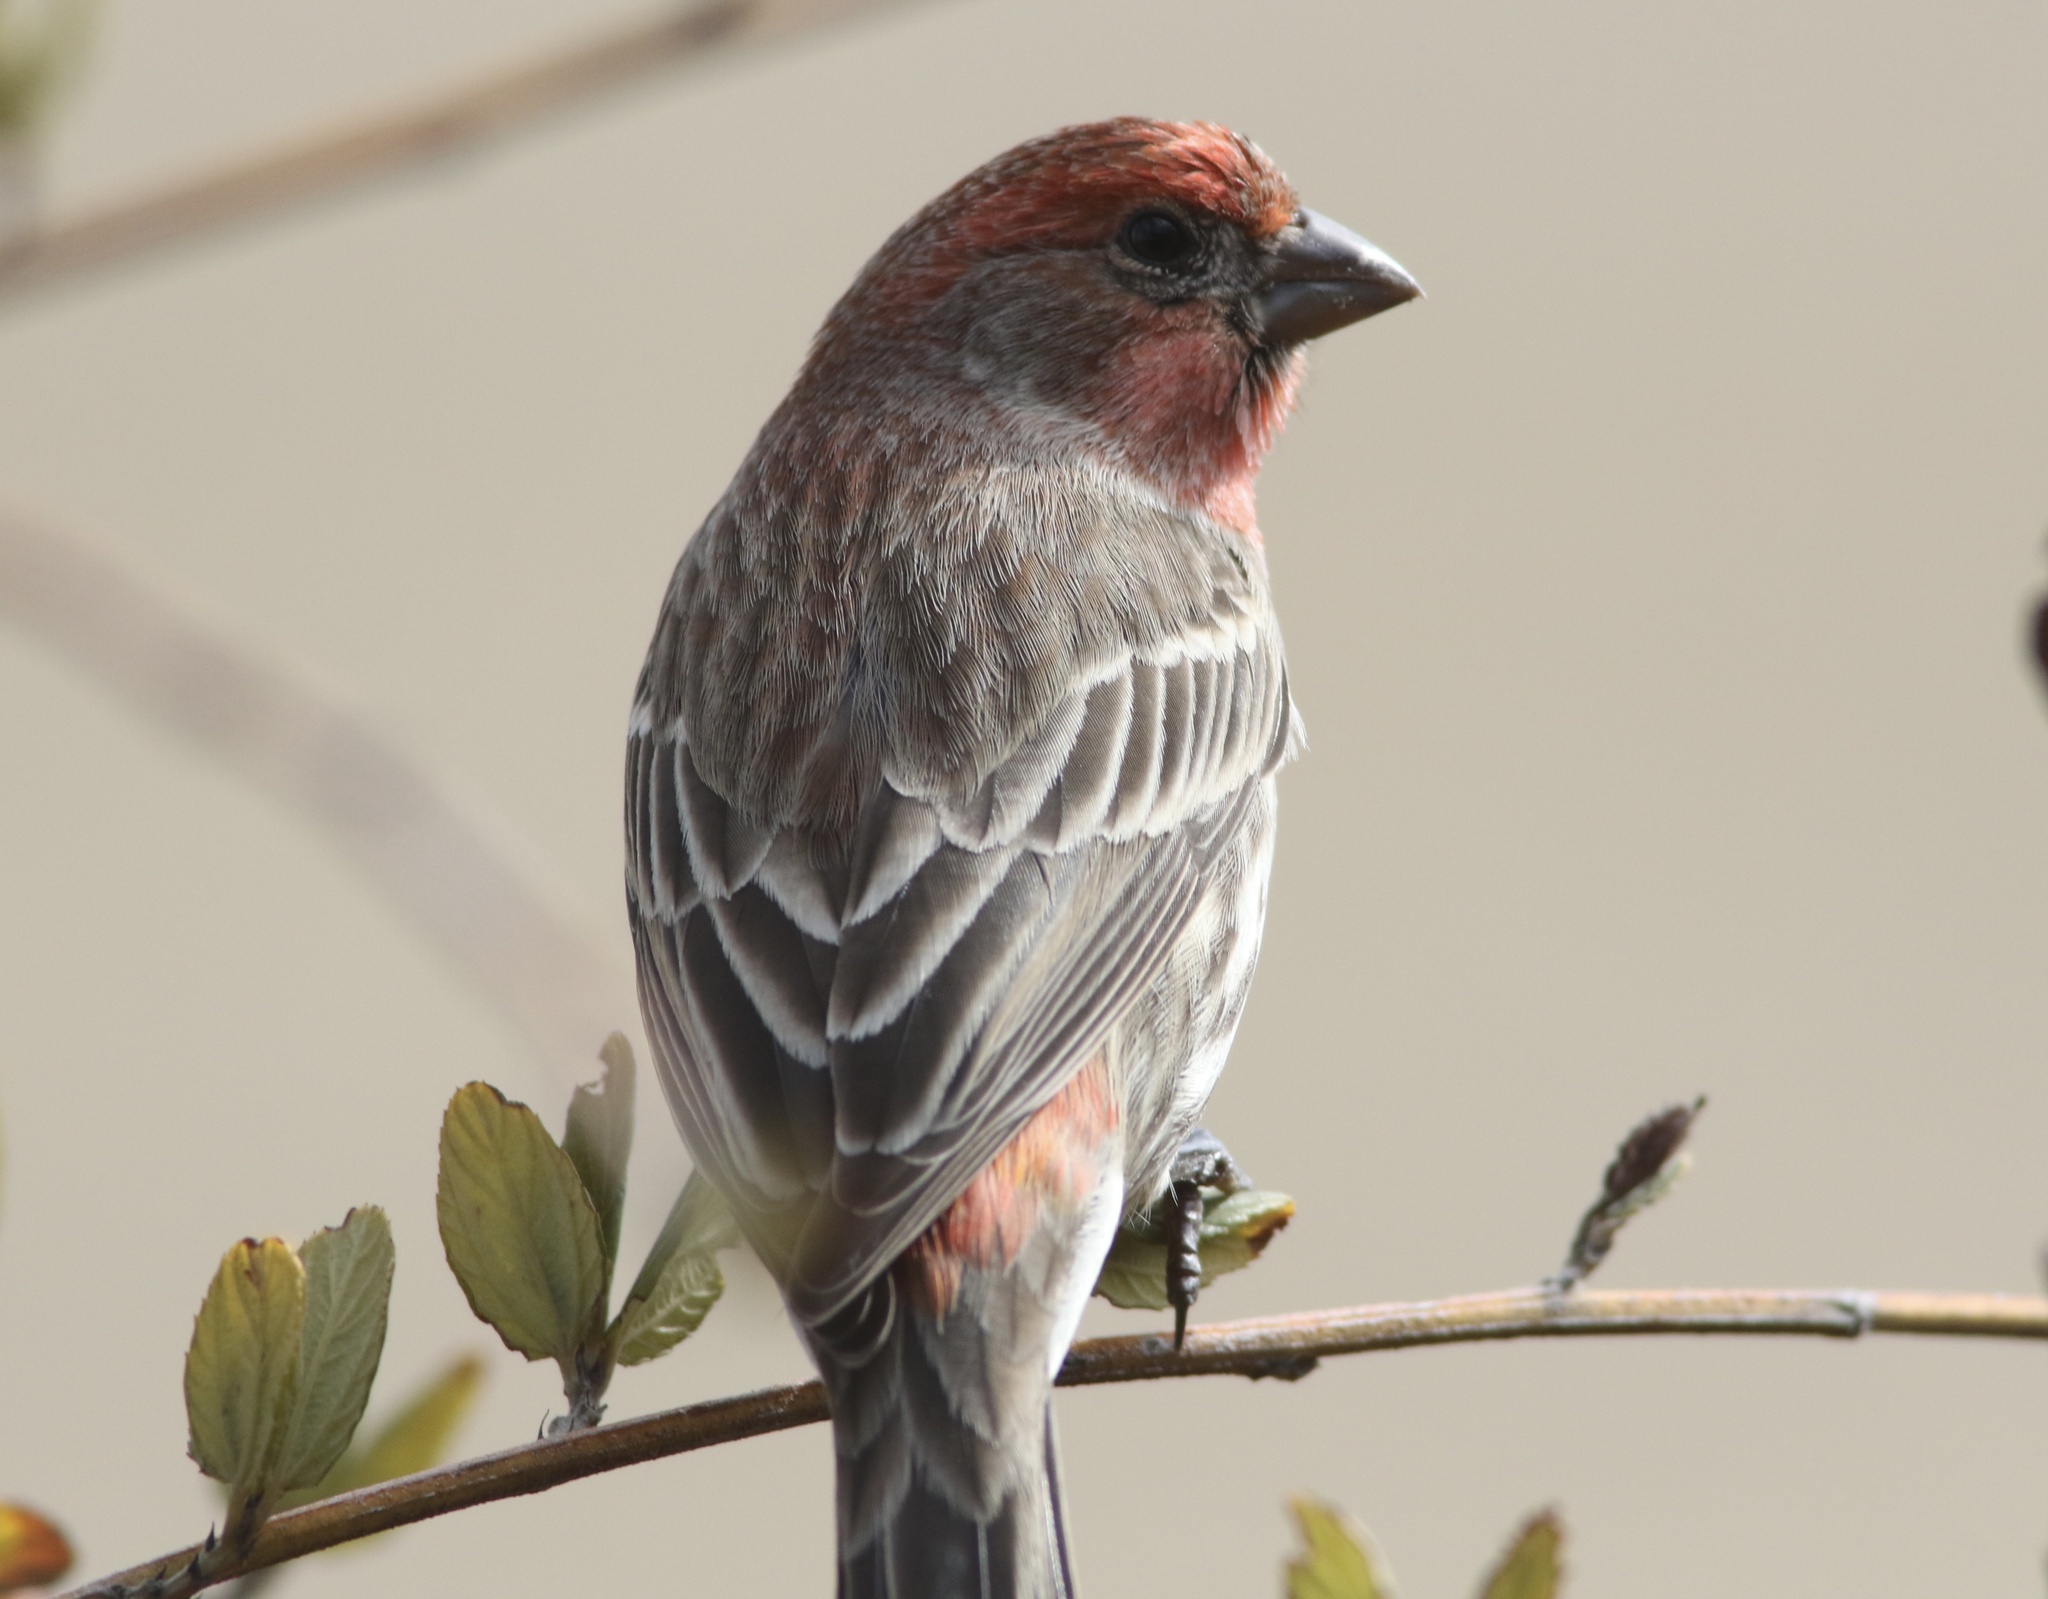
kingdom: Animalia
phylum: Chordata
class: Aves
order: Passeriformes
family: Fringillidae
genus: Haemorhous
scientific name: Haemorhous mexicanus
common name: House finch
